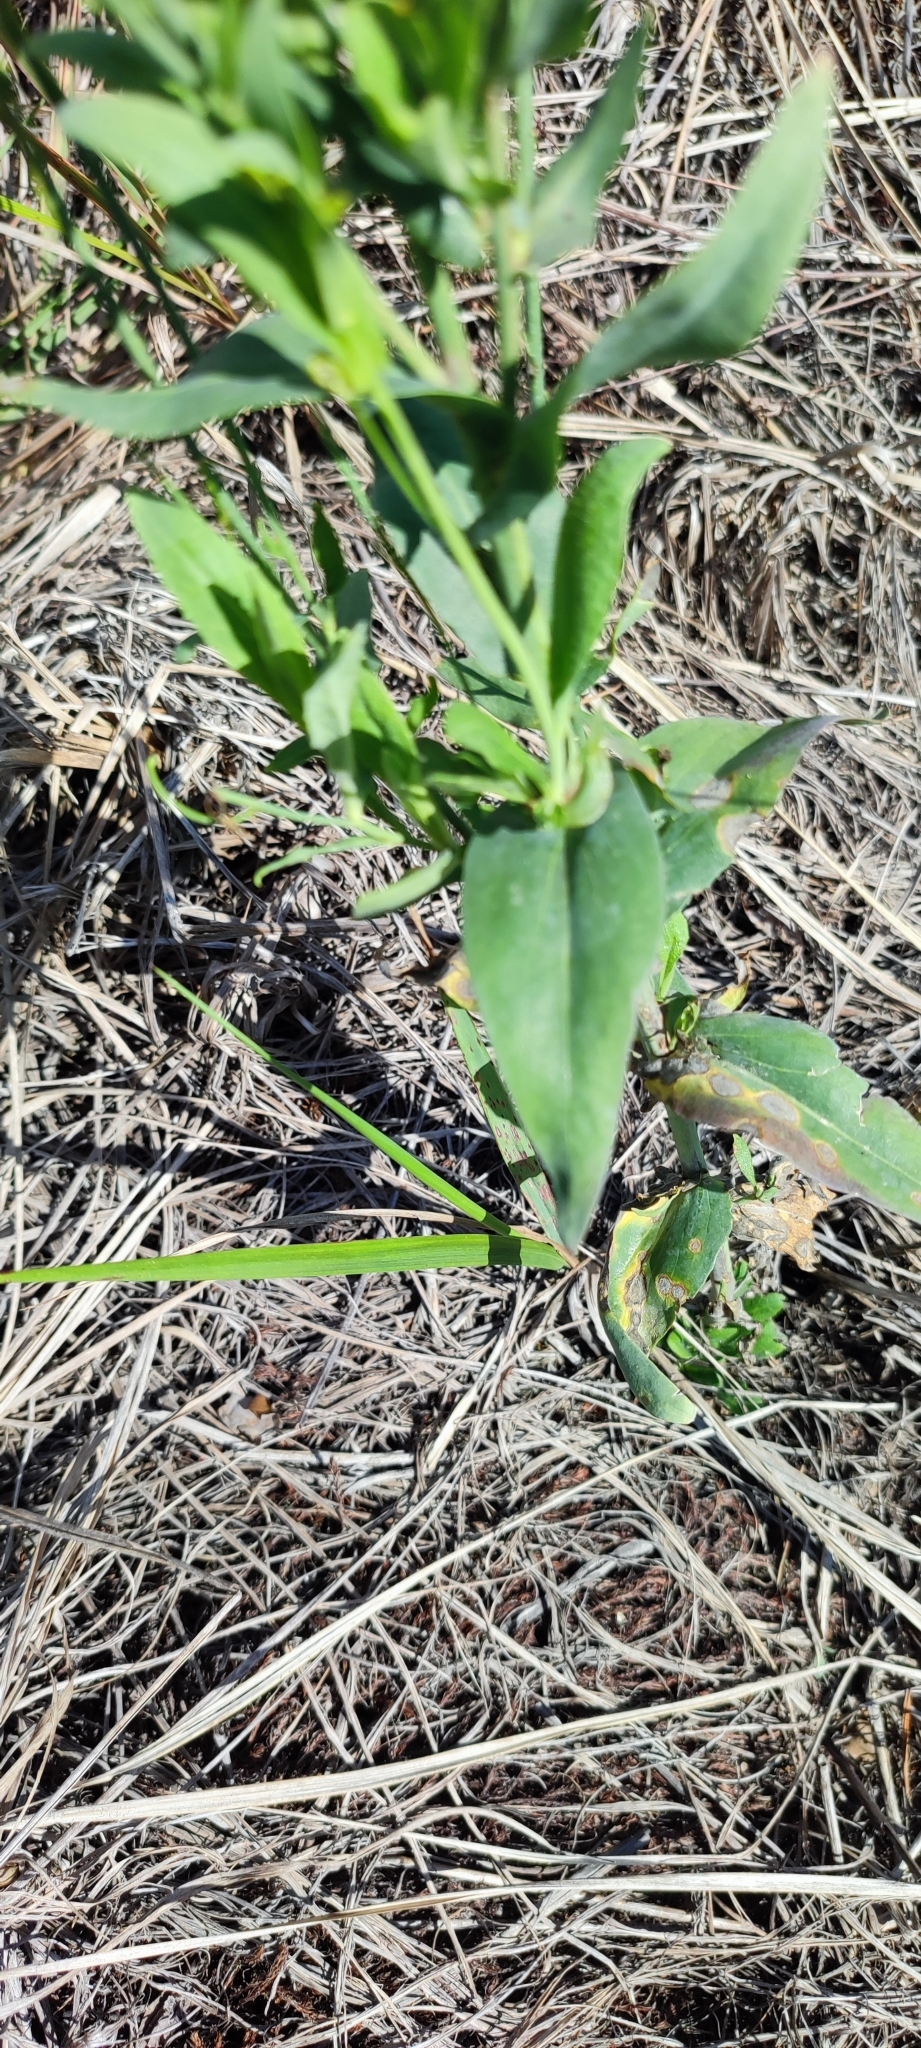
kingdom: Plantae
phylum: Tracheophyta
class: Magnoliopsida
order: Brassicales
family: Brassicaceae
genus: Turritis
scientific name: Turritis glabra
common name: Tower rockcress
